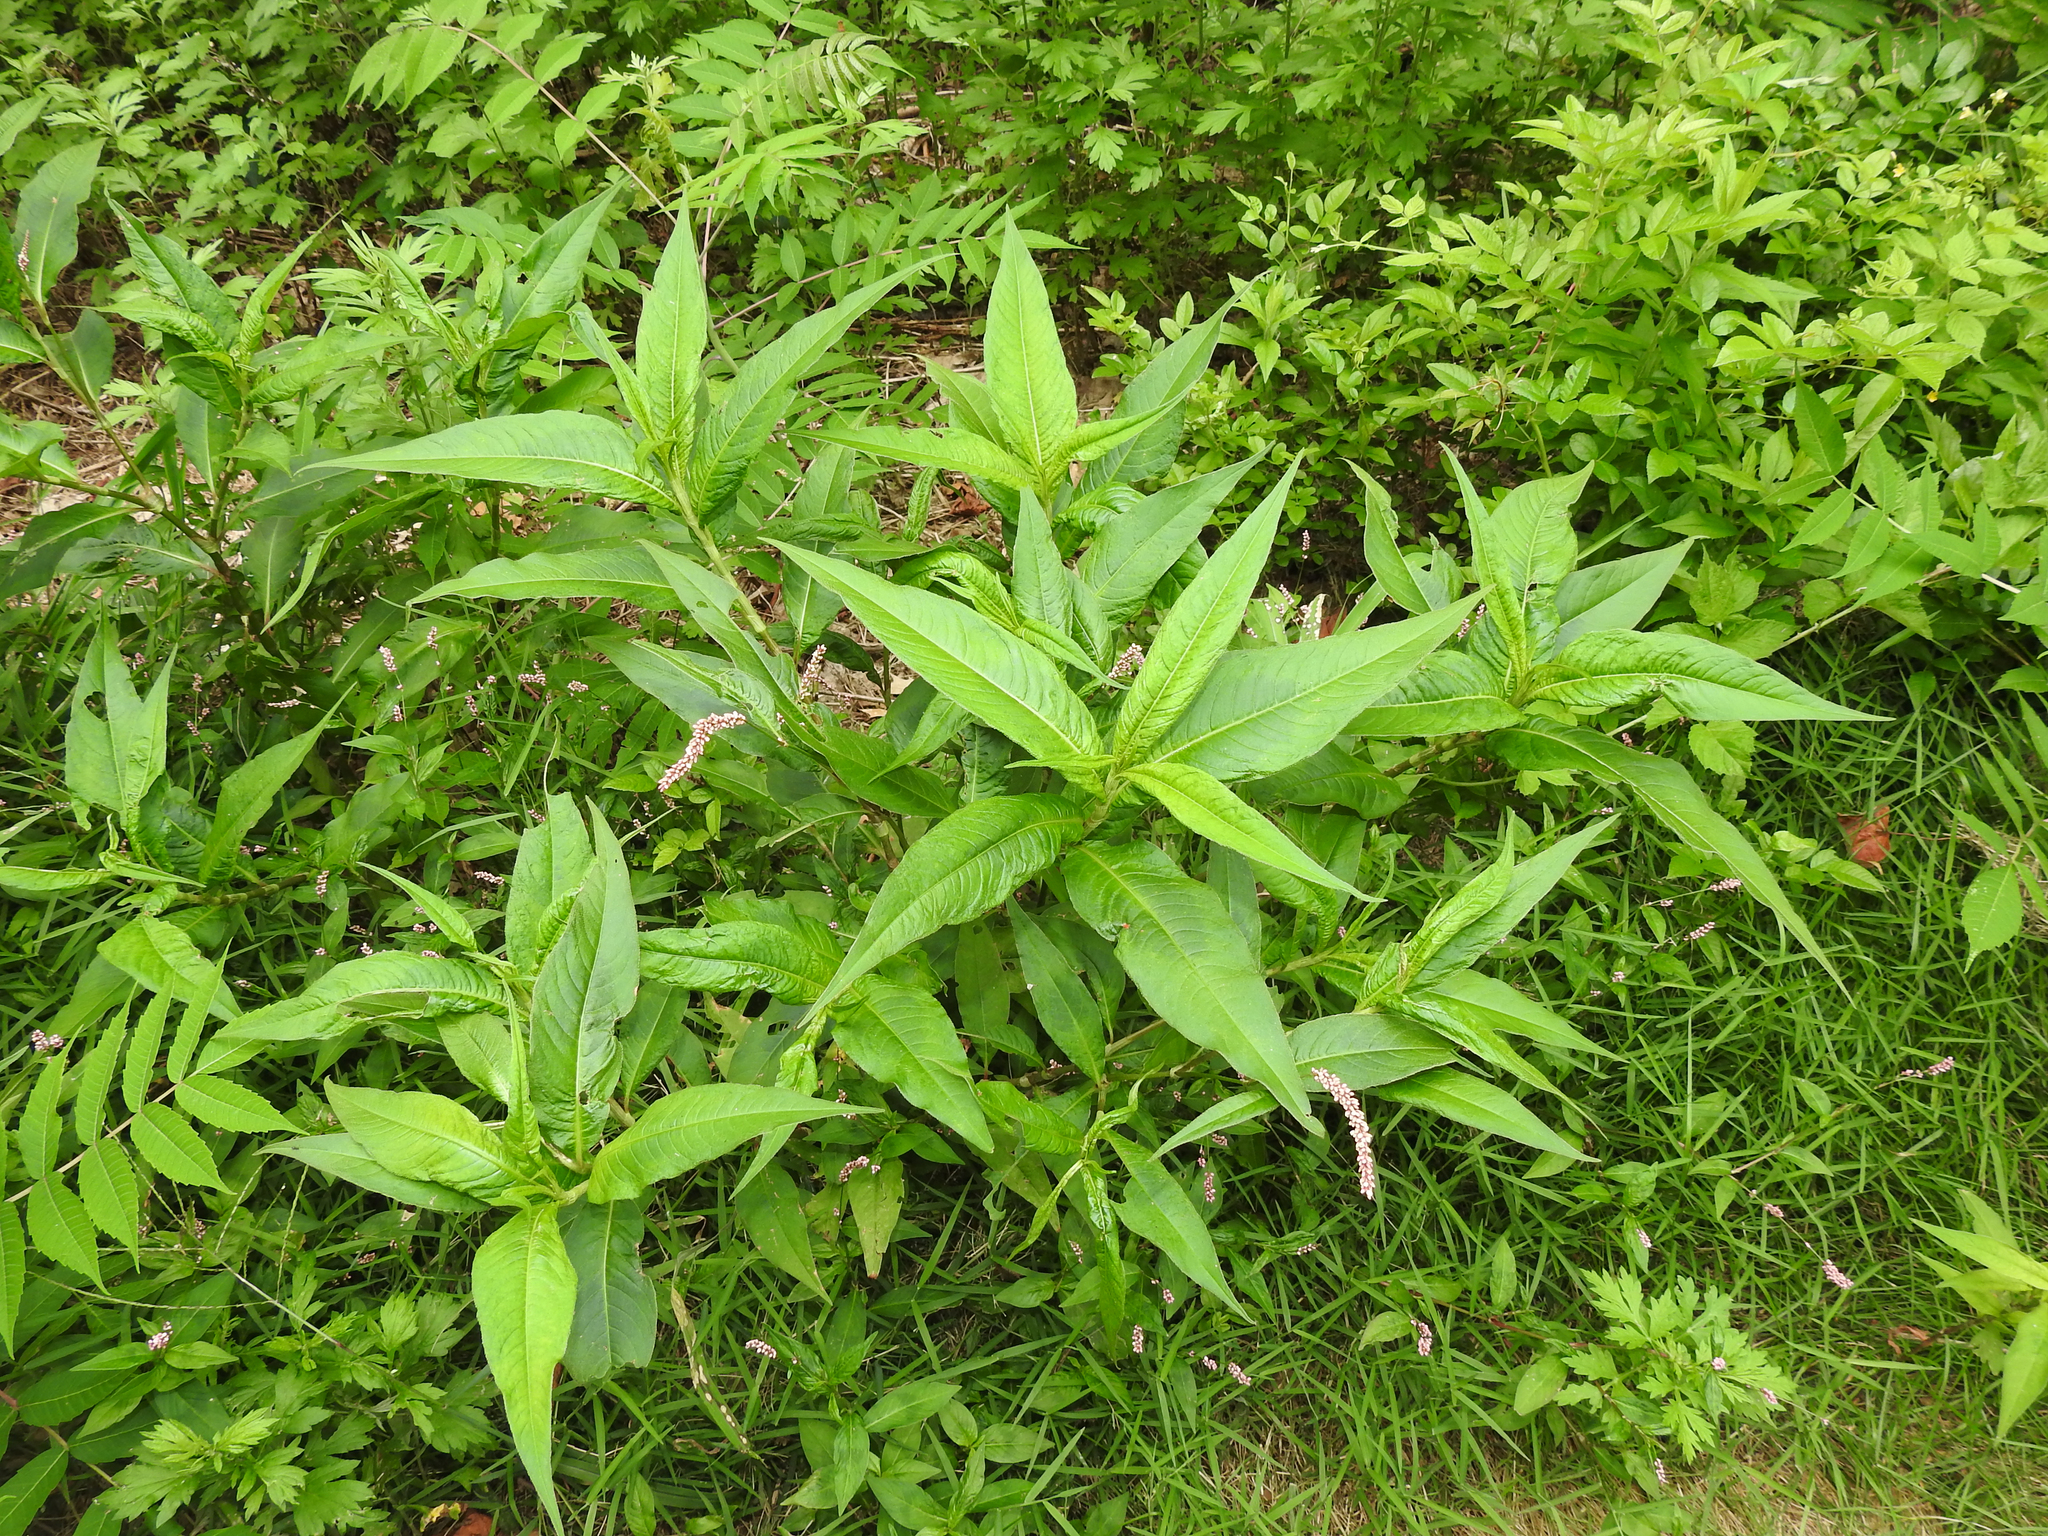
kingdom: Plantae
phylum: Tracheophyta
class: Magnoliopsida
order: Caryophyllales
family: Phytolaccaceae
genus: Phytolacca
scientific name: Phytolacca americana
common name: American pokeweed
